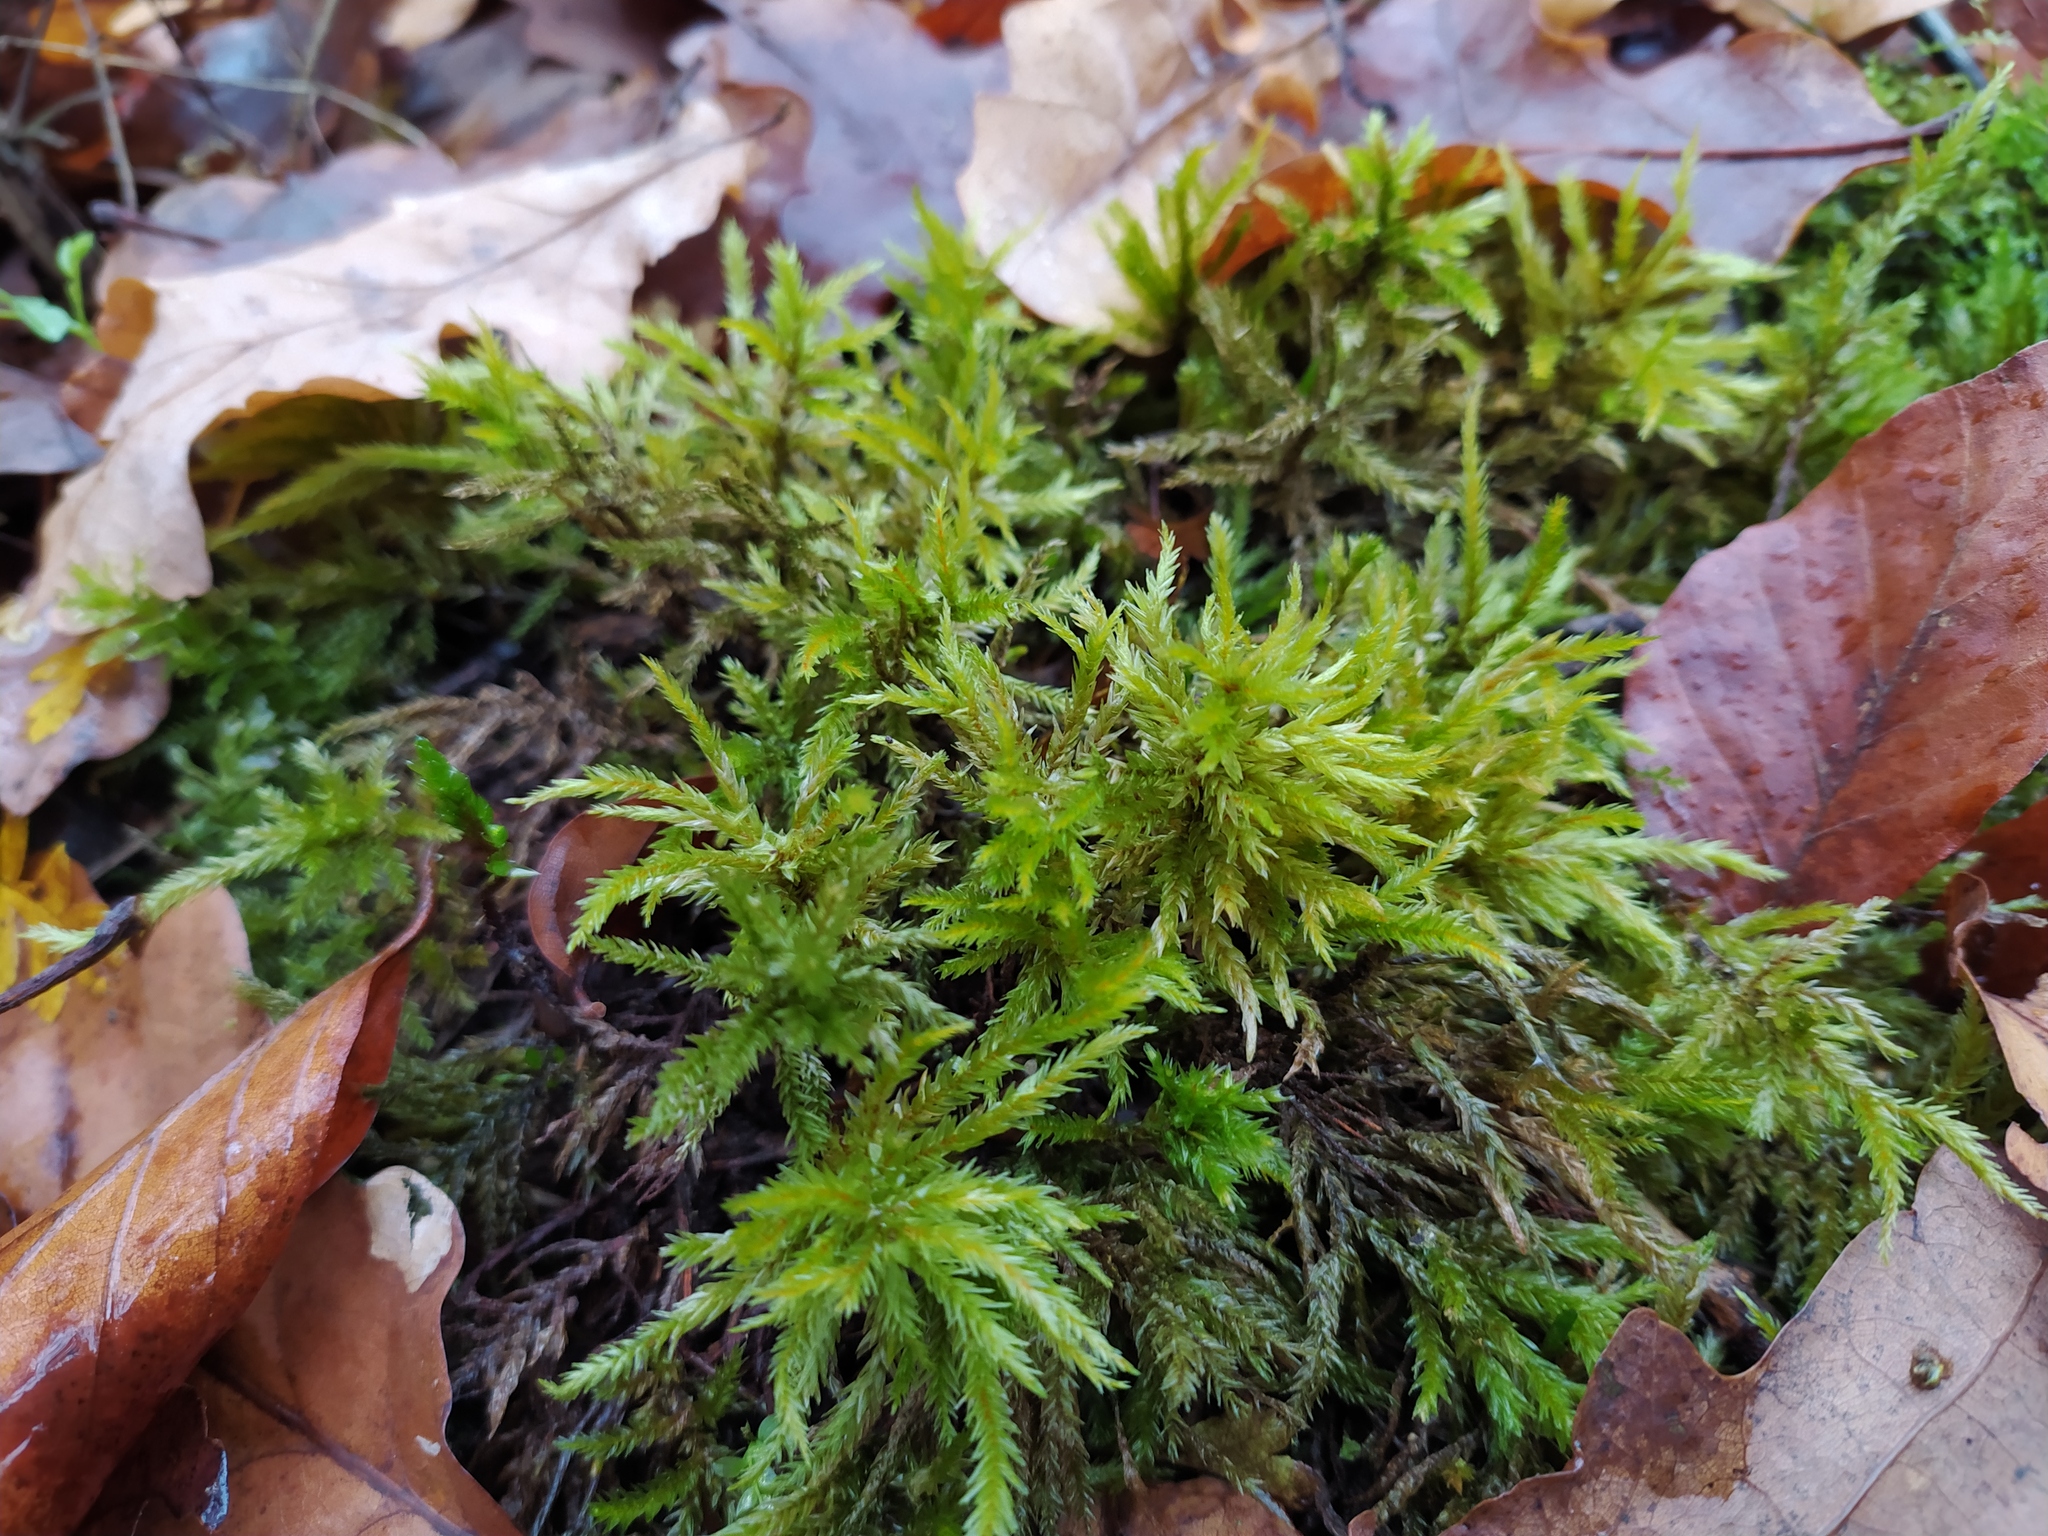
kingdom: Plantae
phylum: Bryophyta
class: Bryopsida
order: Hypnales
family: Climaciaceae
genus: Climacium
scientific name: Climacium dendroides
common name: Northern tree moss
